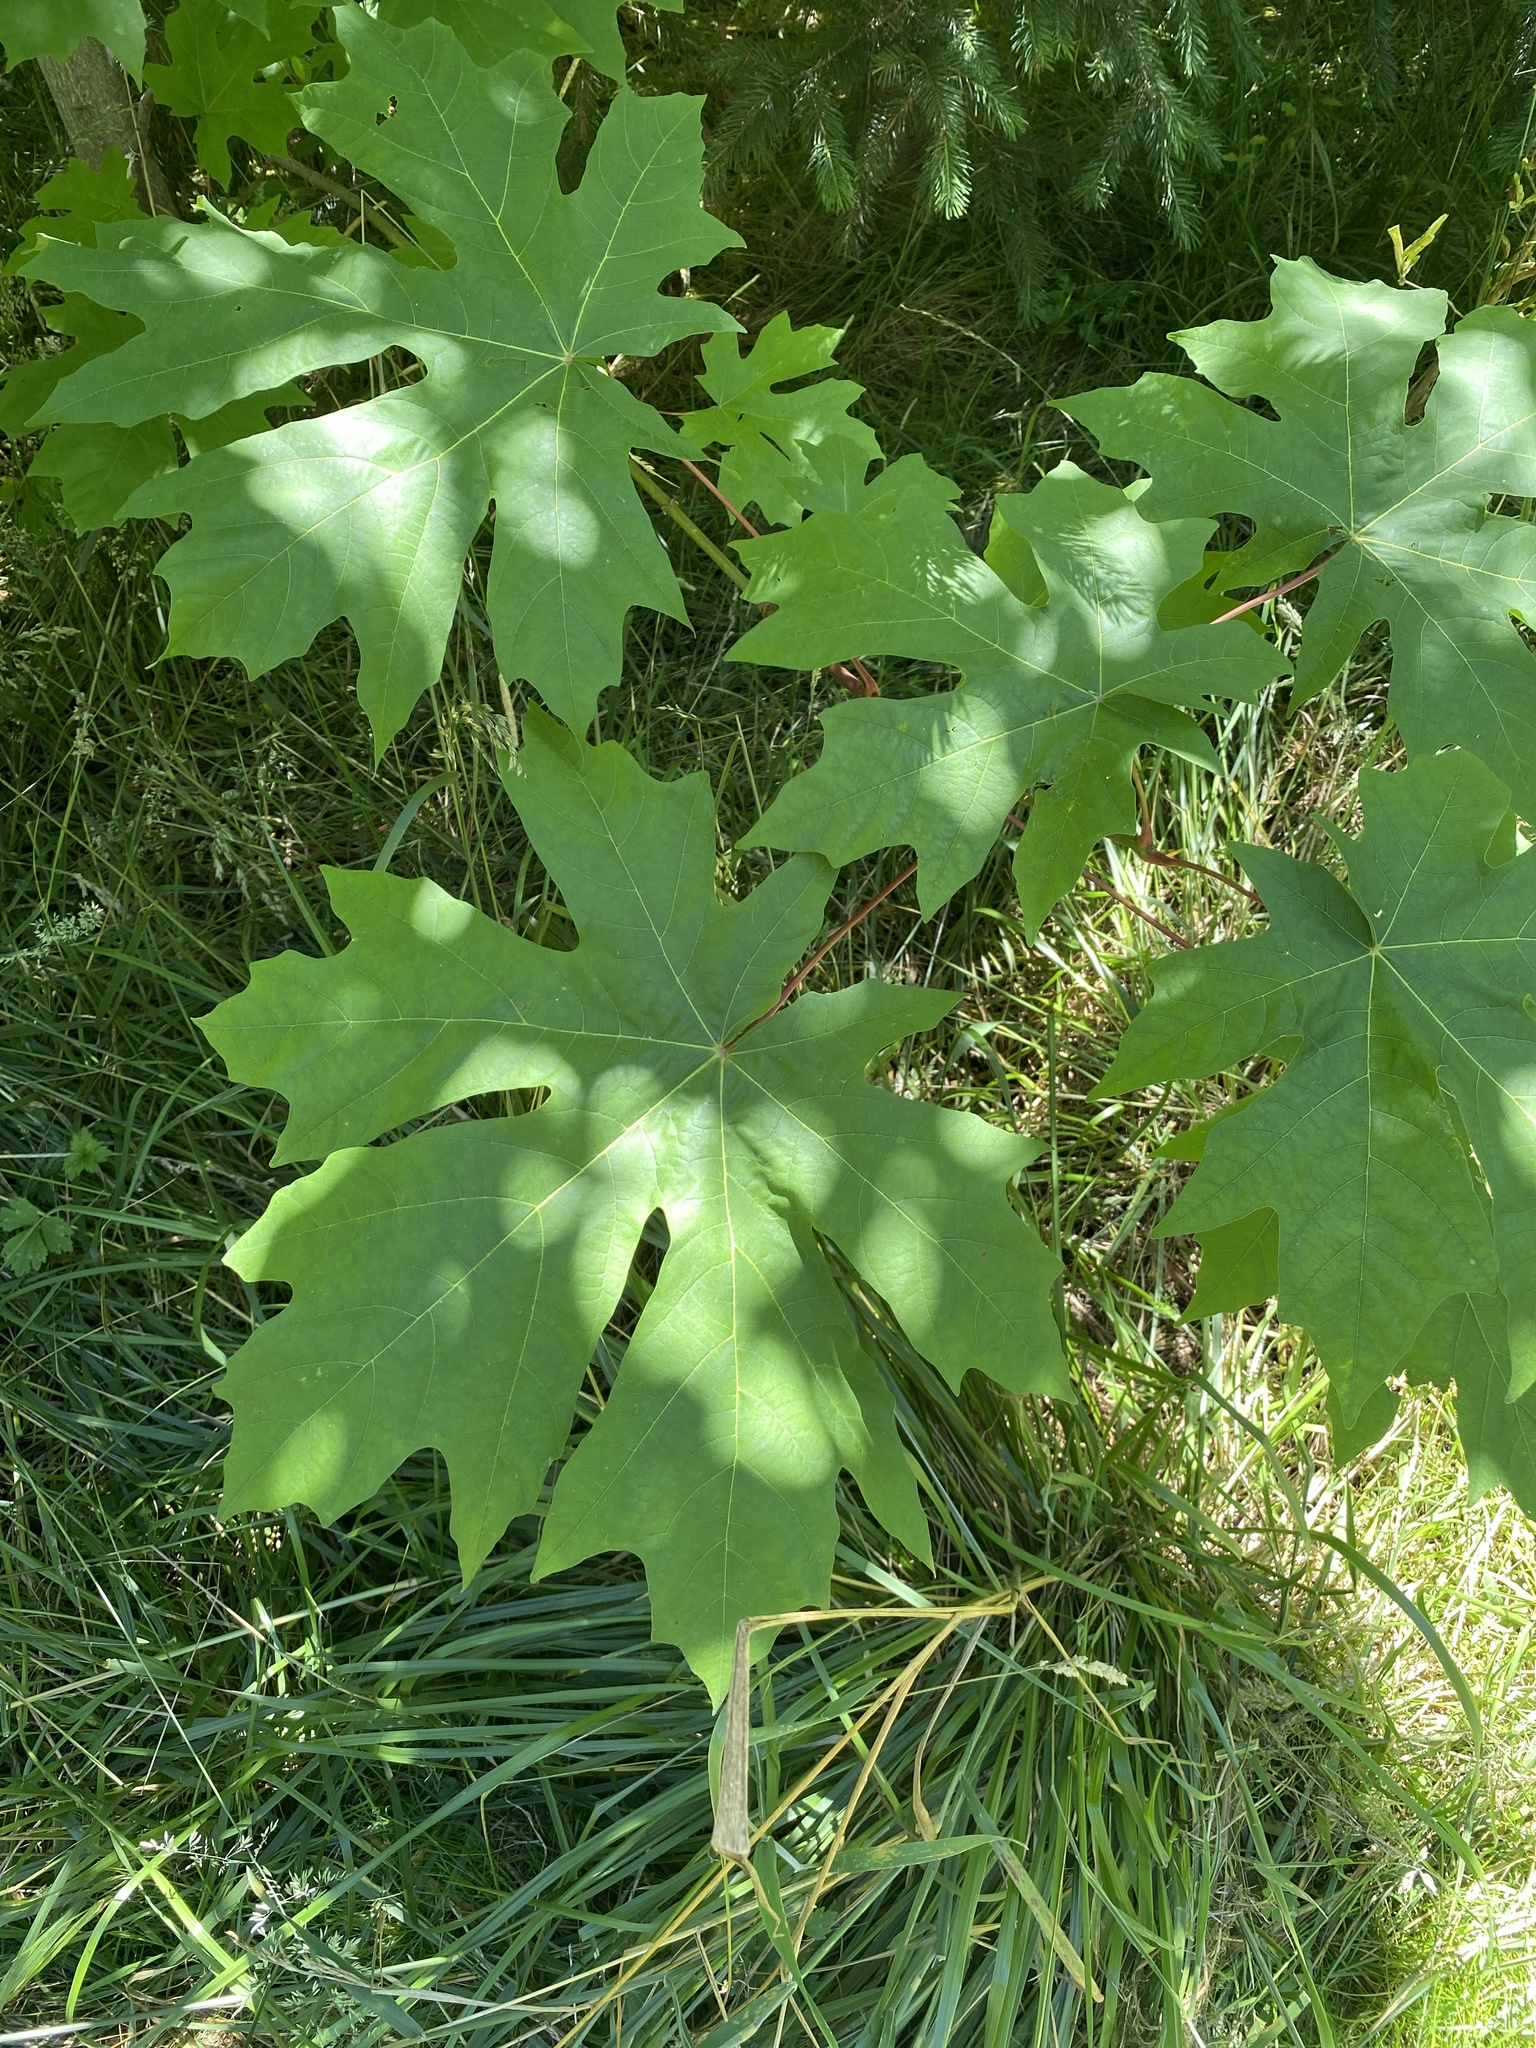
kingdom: Plantae
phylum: Tracheophyta
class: Magnoliopsida
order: Sapindales
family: Sapindaceae
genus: Acer
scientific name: Acer macrophyllum
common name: Oregon maple
